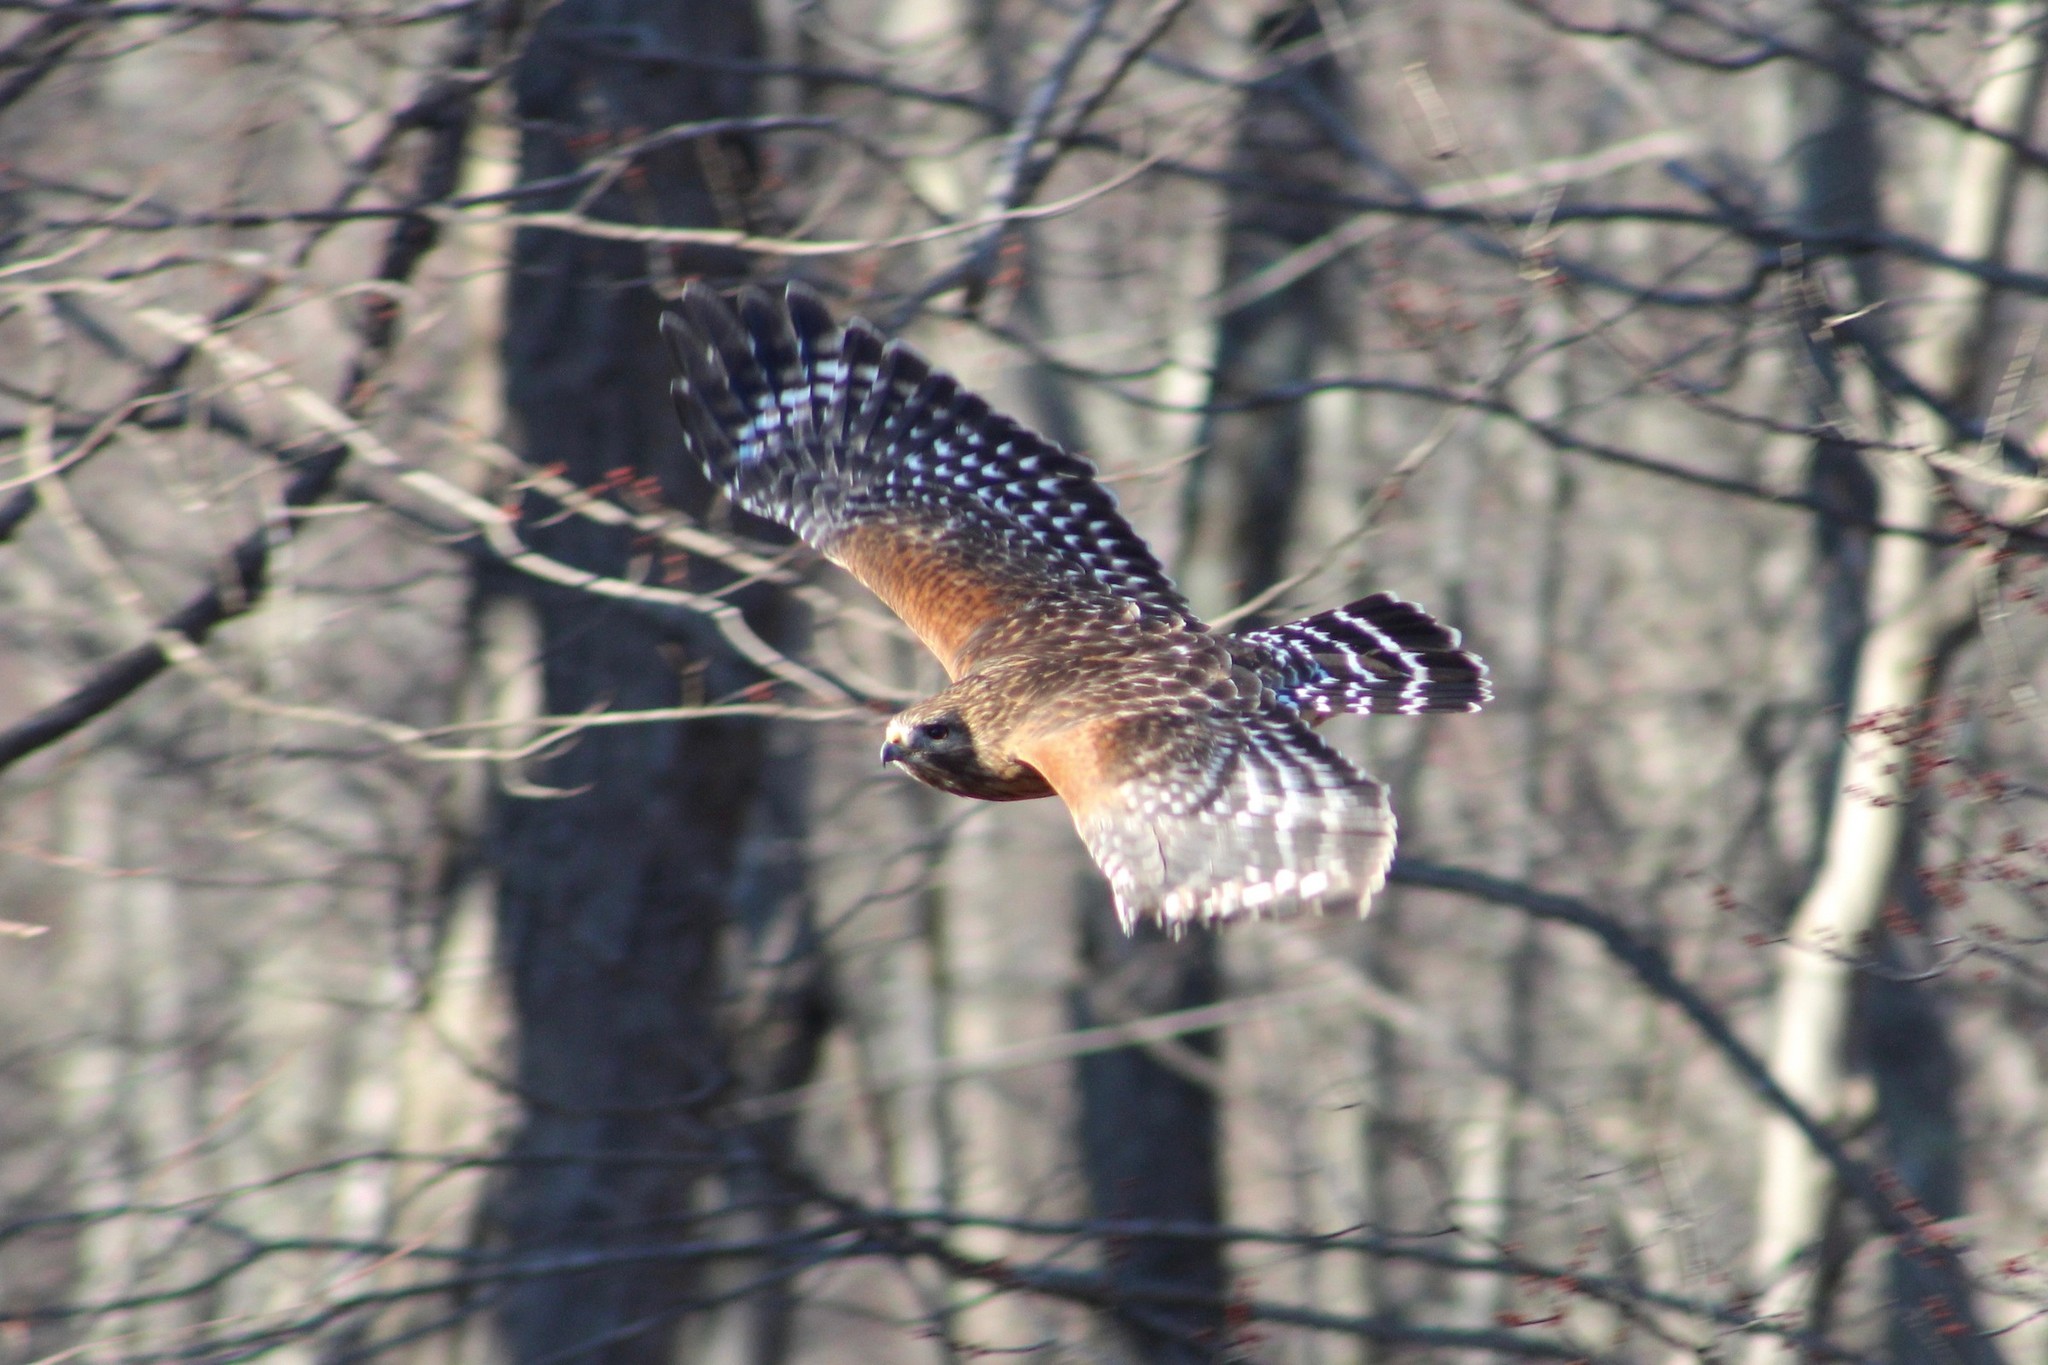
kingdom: Animalia
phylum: Chordata
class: Aves
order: Accipitriformes
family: Accipitridae
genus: Buteo
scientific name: Buteo lineatus
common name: Red-shouldered hawk
